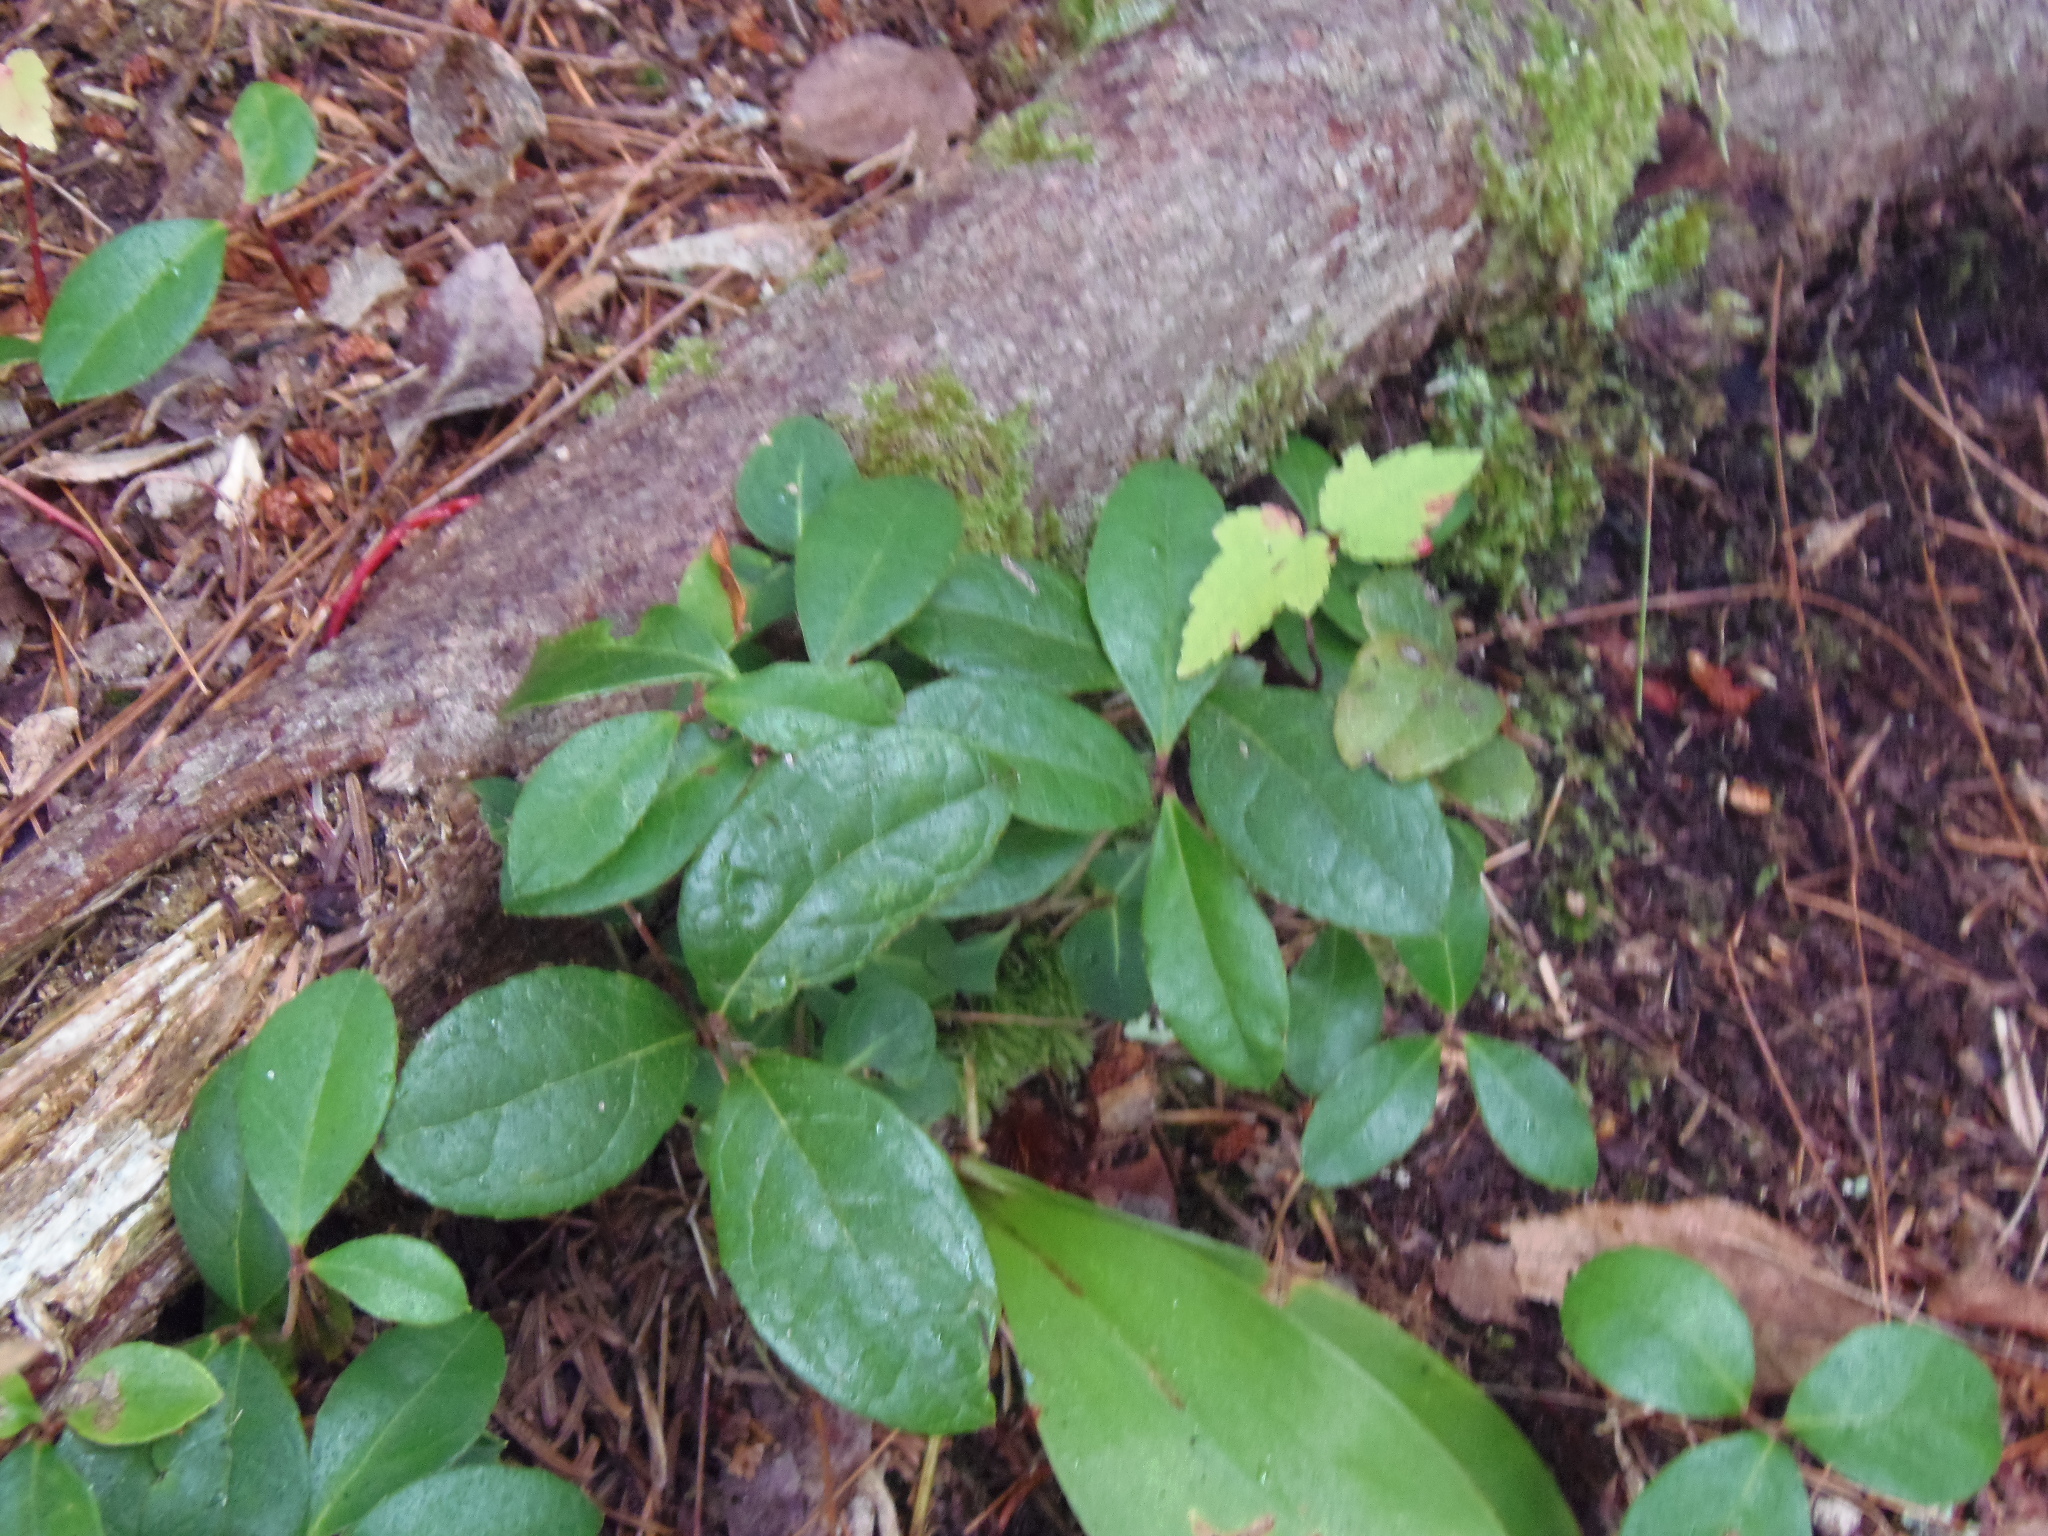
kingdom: Plantae
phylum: Tracheophyta
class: Magnoliopsida
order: Ericales
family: Ericaceae
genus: Gaultheria
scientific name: Gaultheria procumbens
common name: Checkerberry
